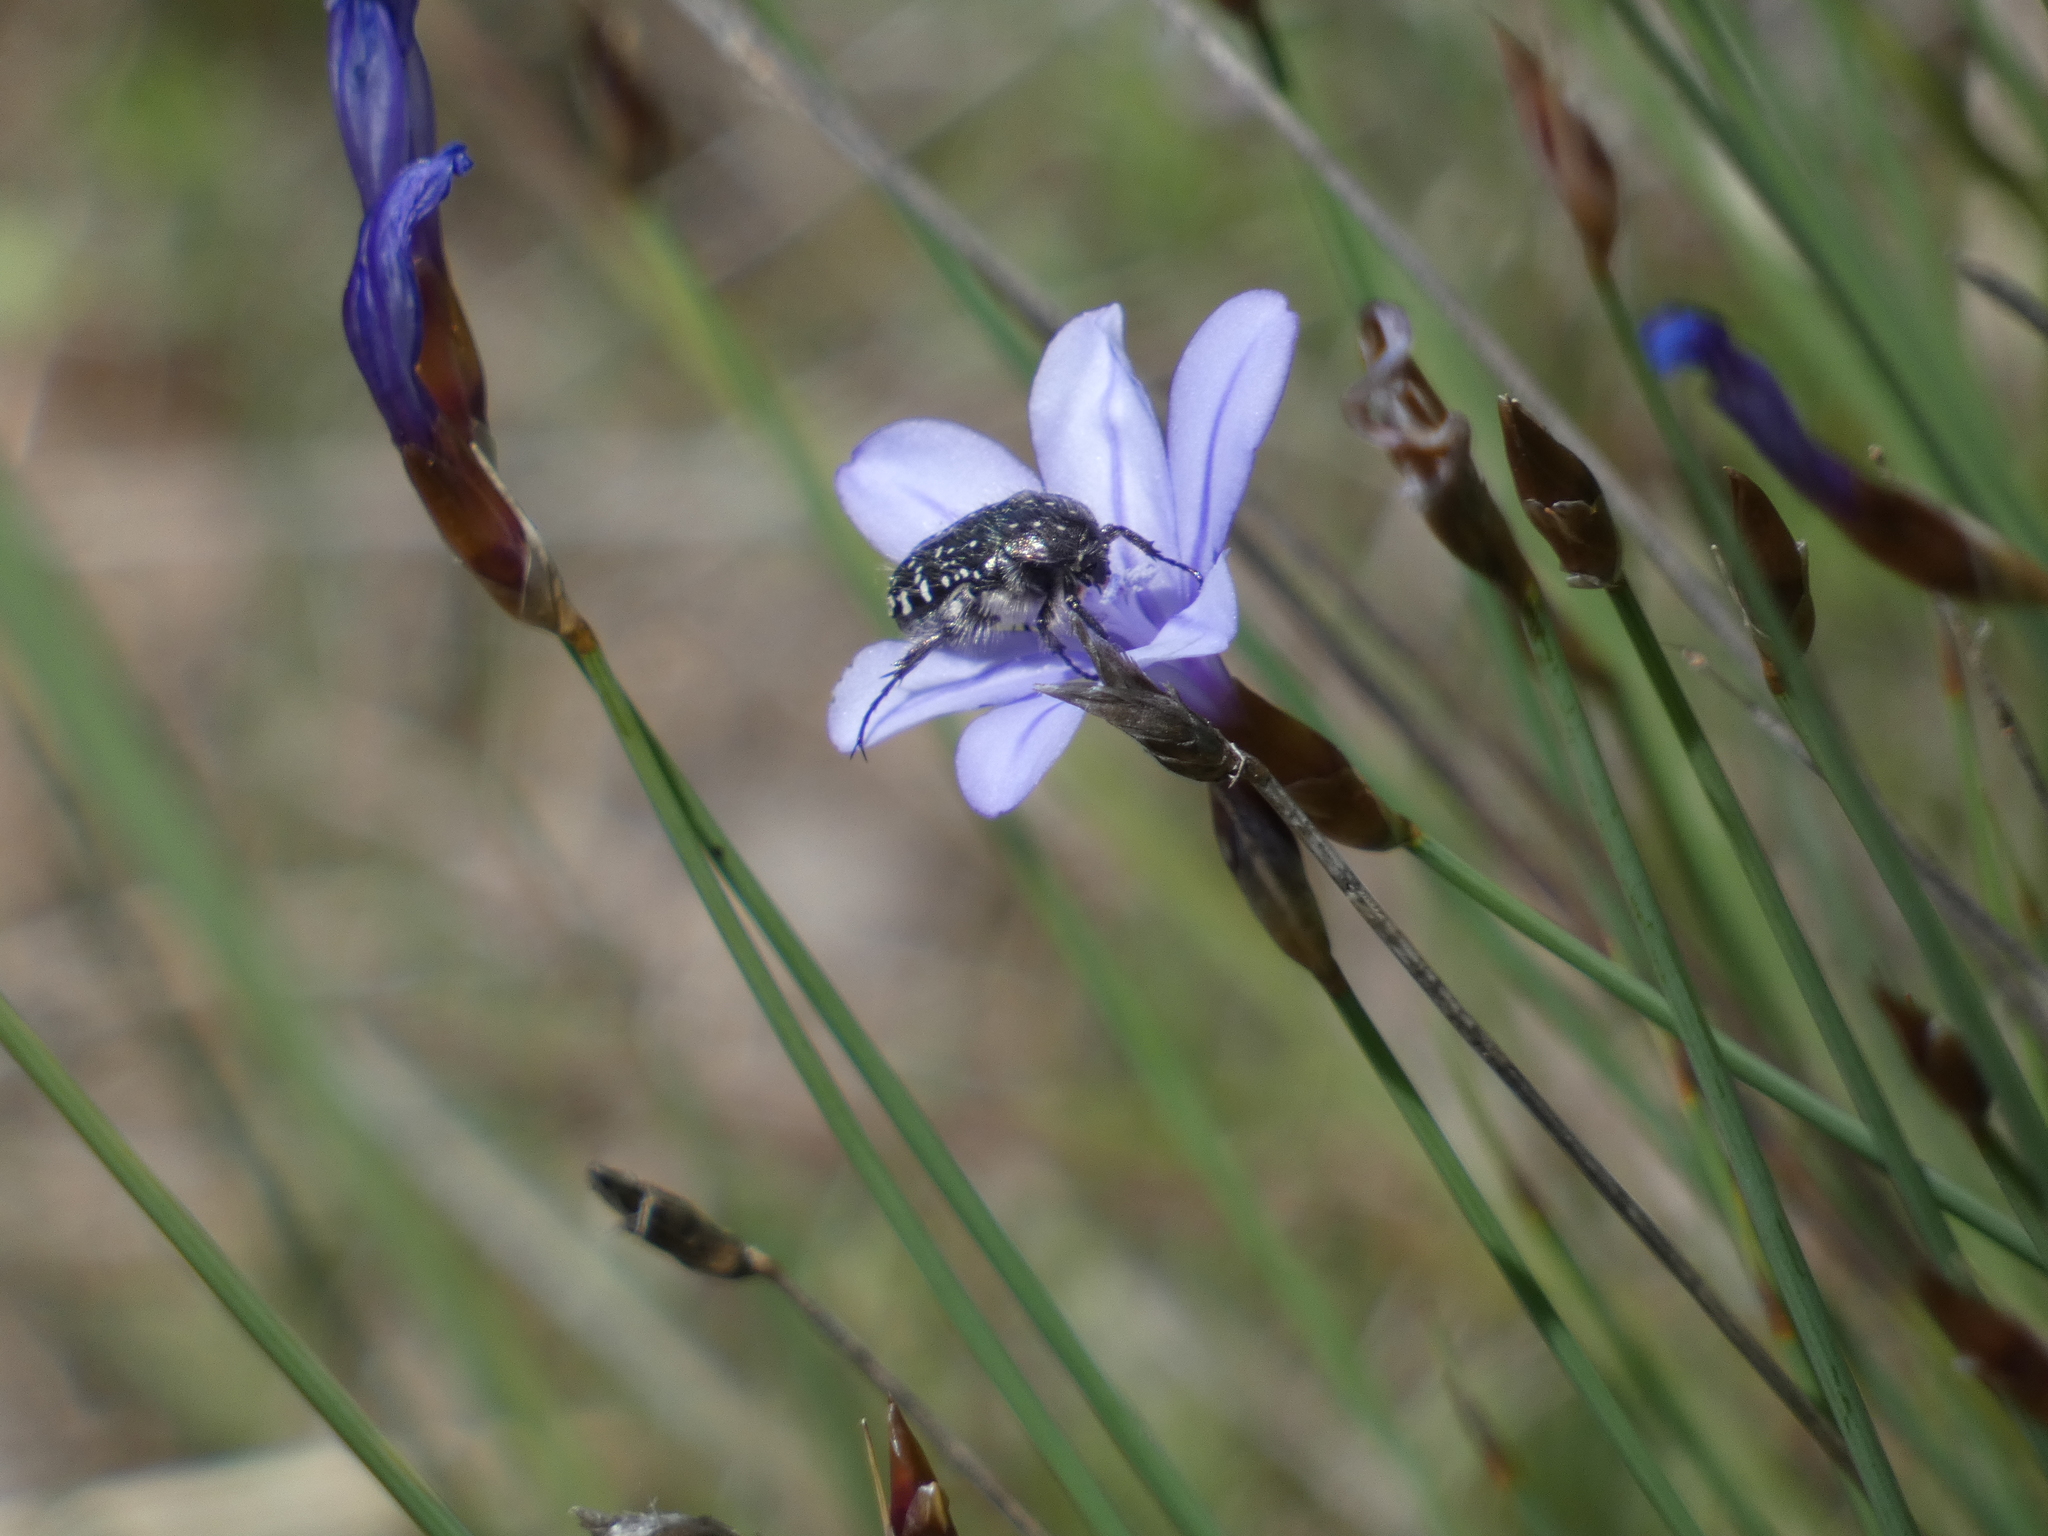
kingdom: Animalia
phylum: Arthropoda
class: Insecta
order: Coleoptera
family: Scarabaeidae
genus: Oxythyrea
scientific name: Oxythyrea funesta
